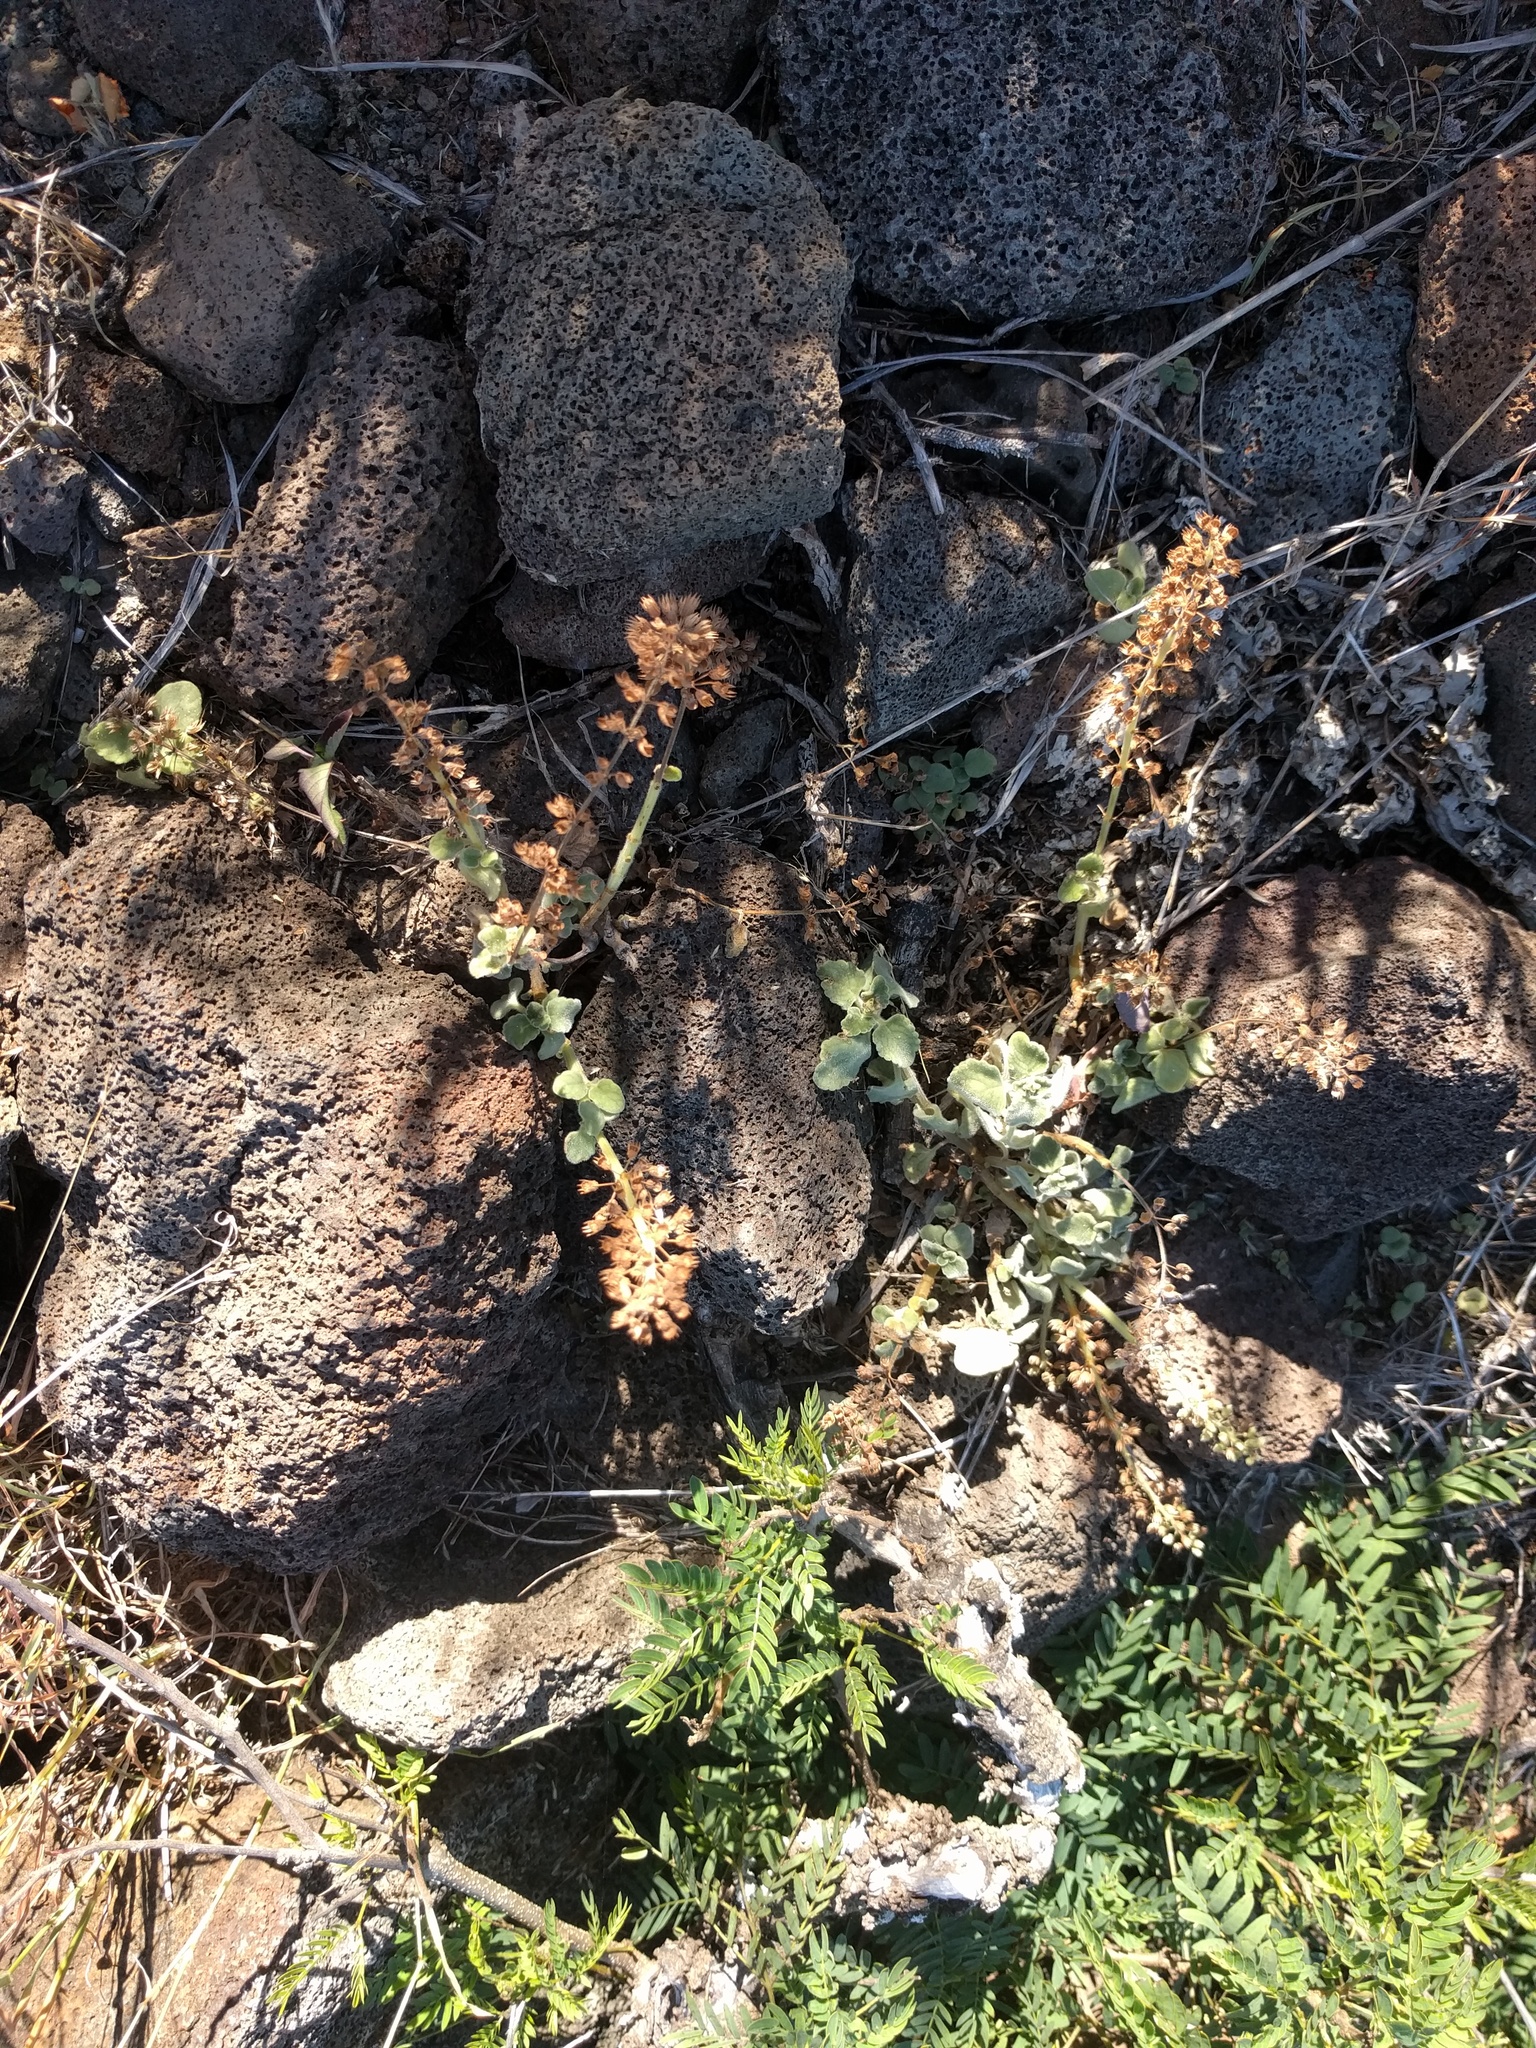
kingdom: Plantae
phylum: Tracheophyta
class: Magnoliopsida
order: Lamiales
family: Lamiaceae
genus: Coleus
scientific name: Coleus australis
